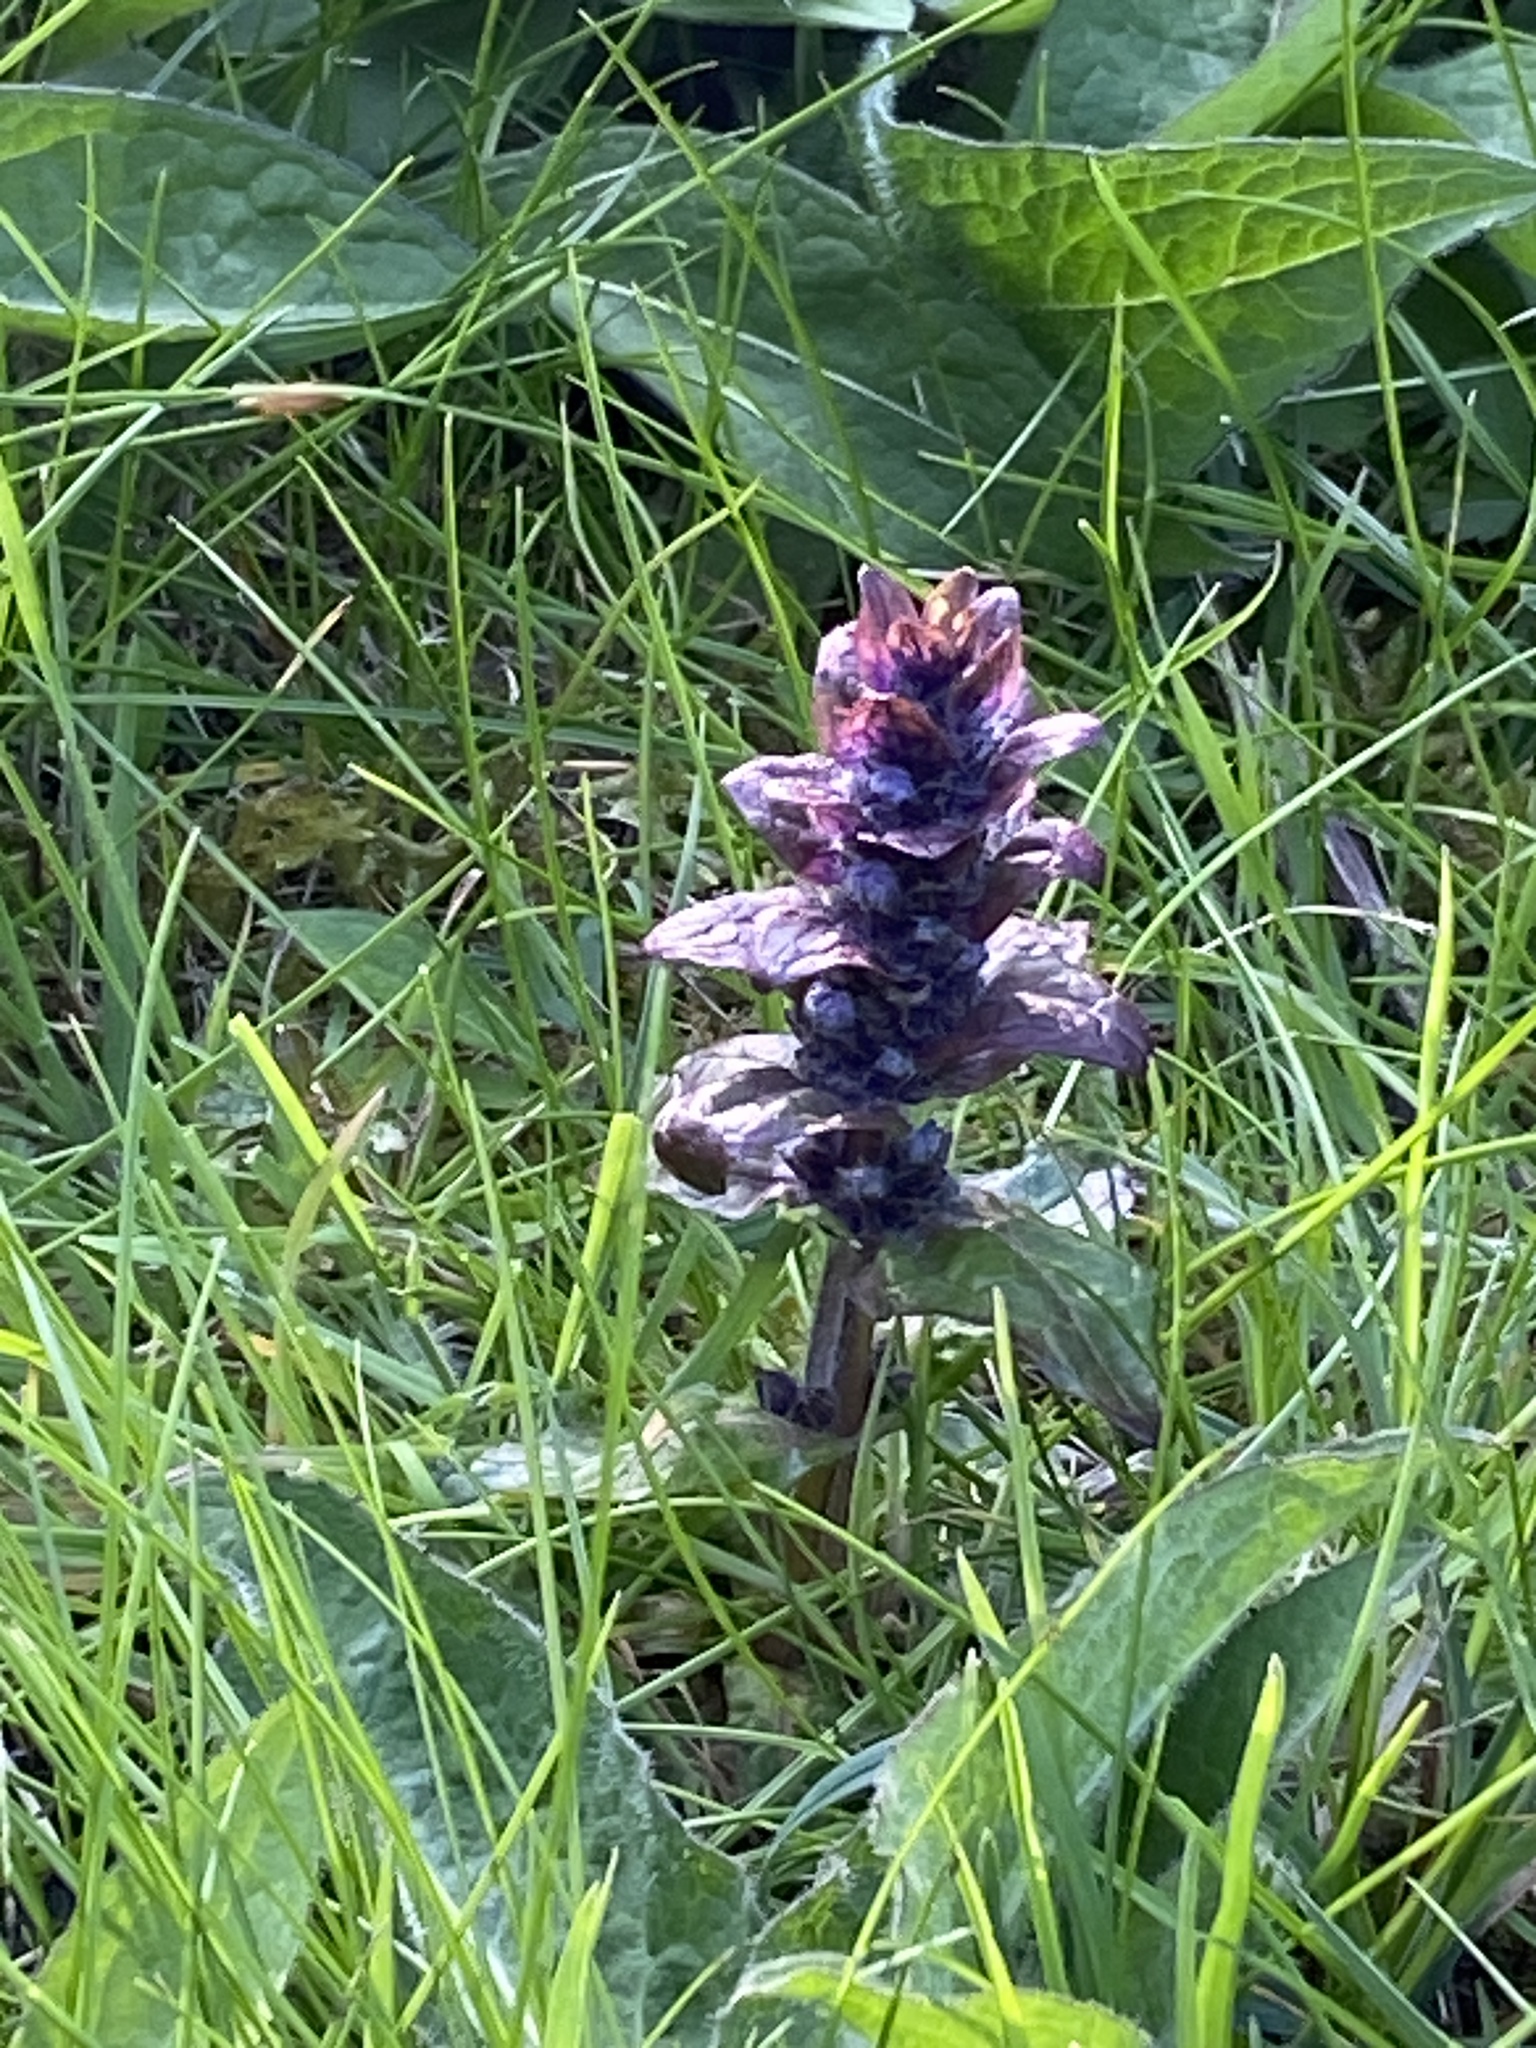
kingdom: Plantae
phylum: Tracheophyta
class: Magnoliopsida
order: Lamiales
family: Lamiaceae
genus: Ajuga
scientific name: Ajuga reptans
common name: Bugle
